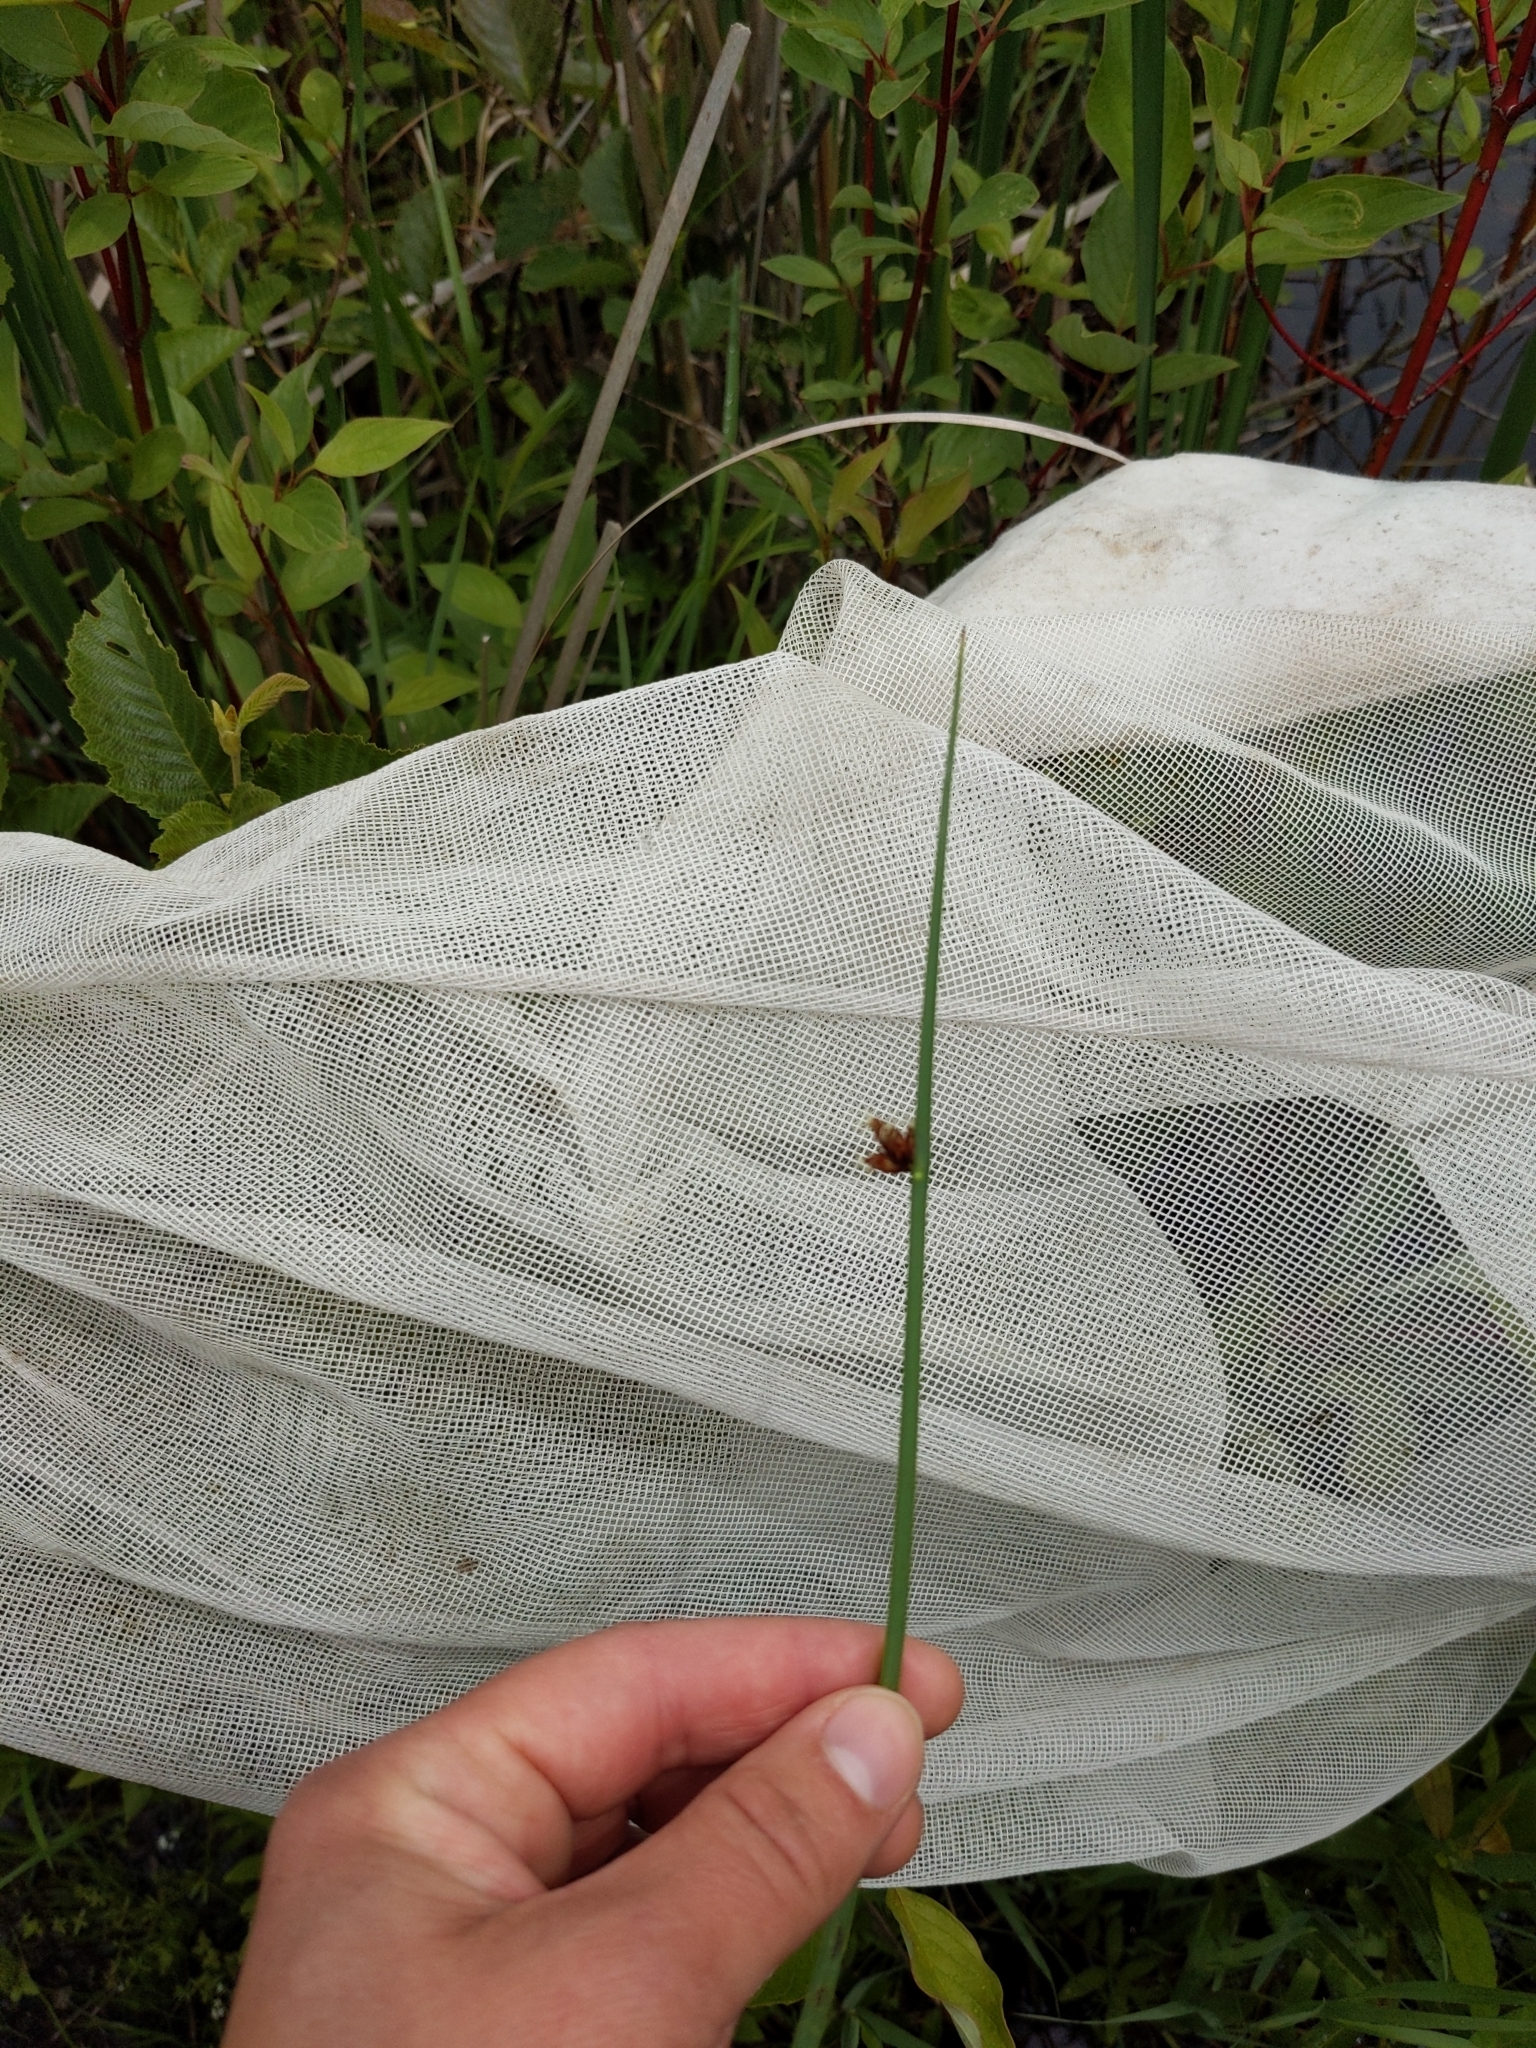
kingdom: Plantae
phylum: Tracheophyta
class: Liliopsida
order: Poales
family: Cyperaceae
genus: Schoenoplectus
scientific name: Schoenoplectus pungens
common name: Sharp club-rush
